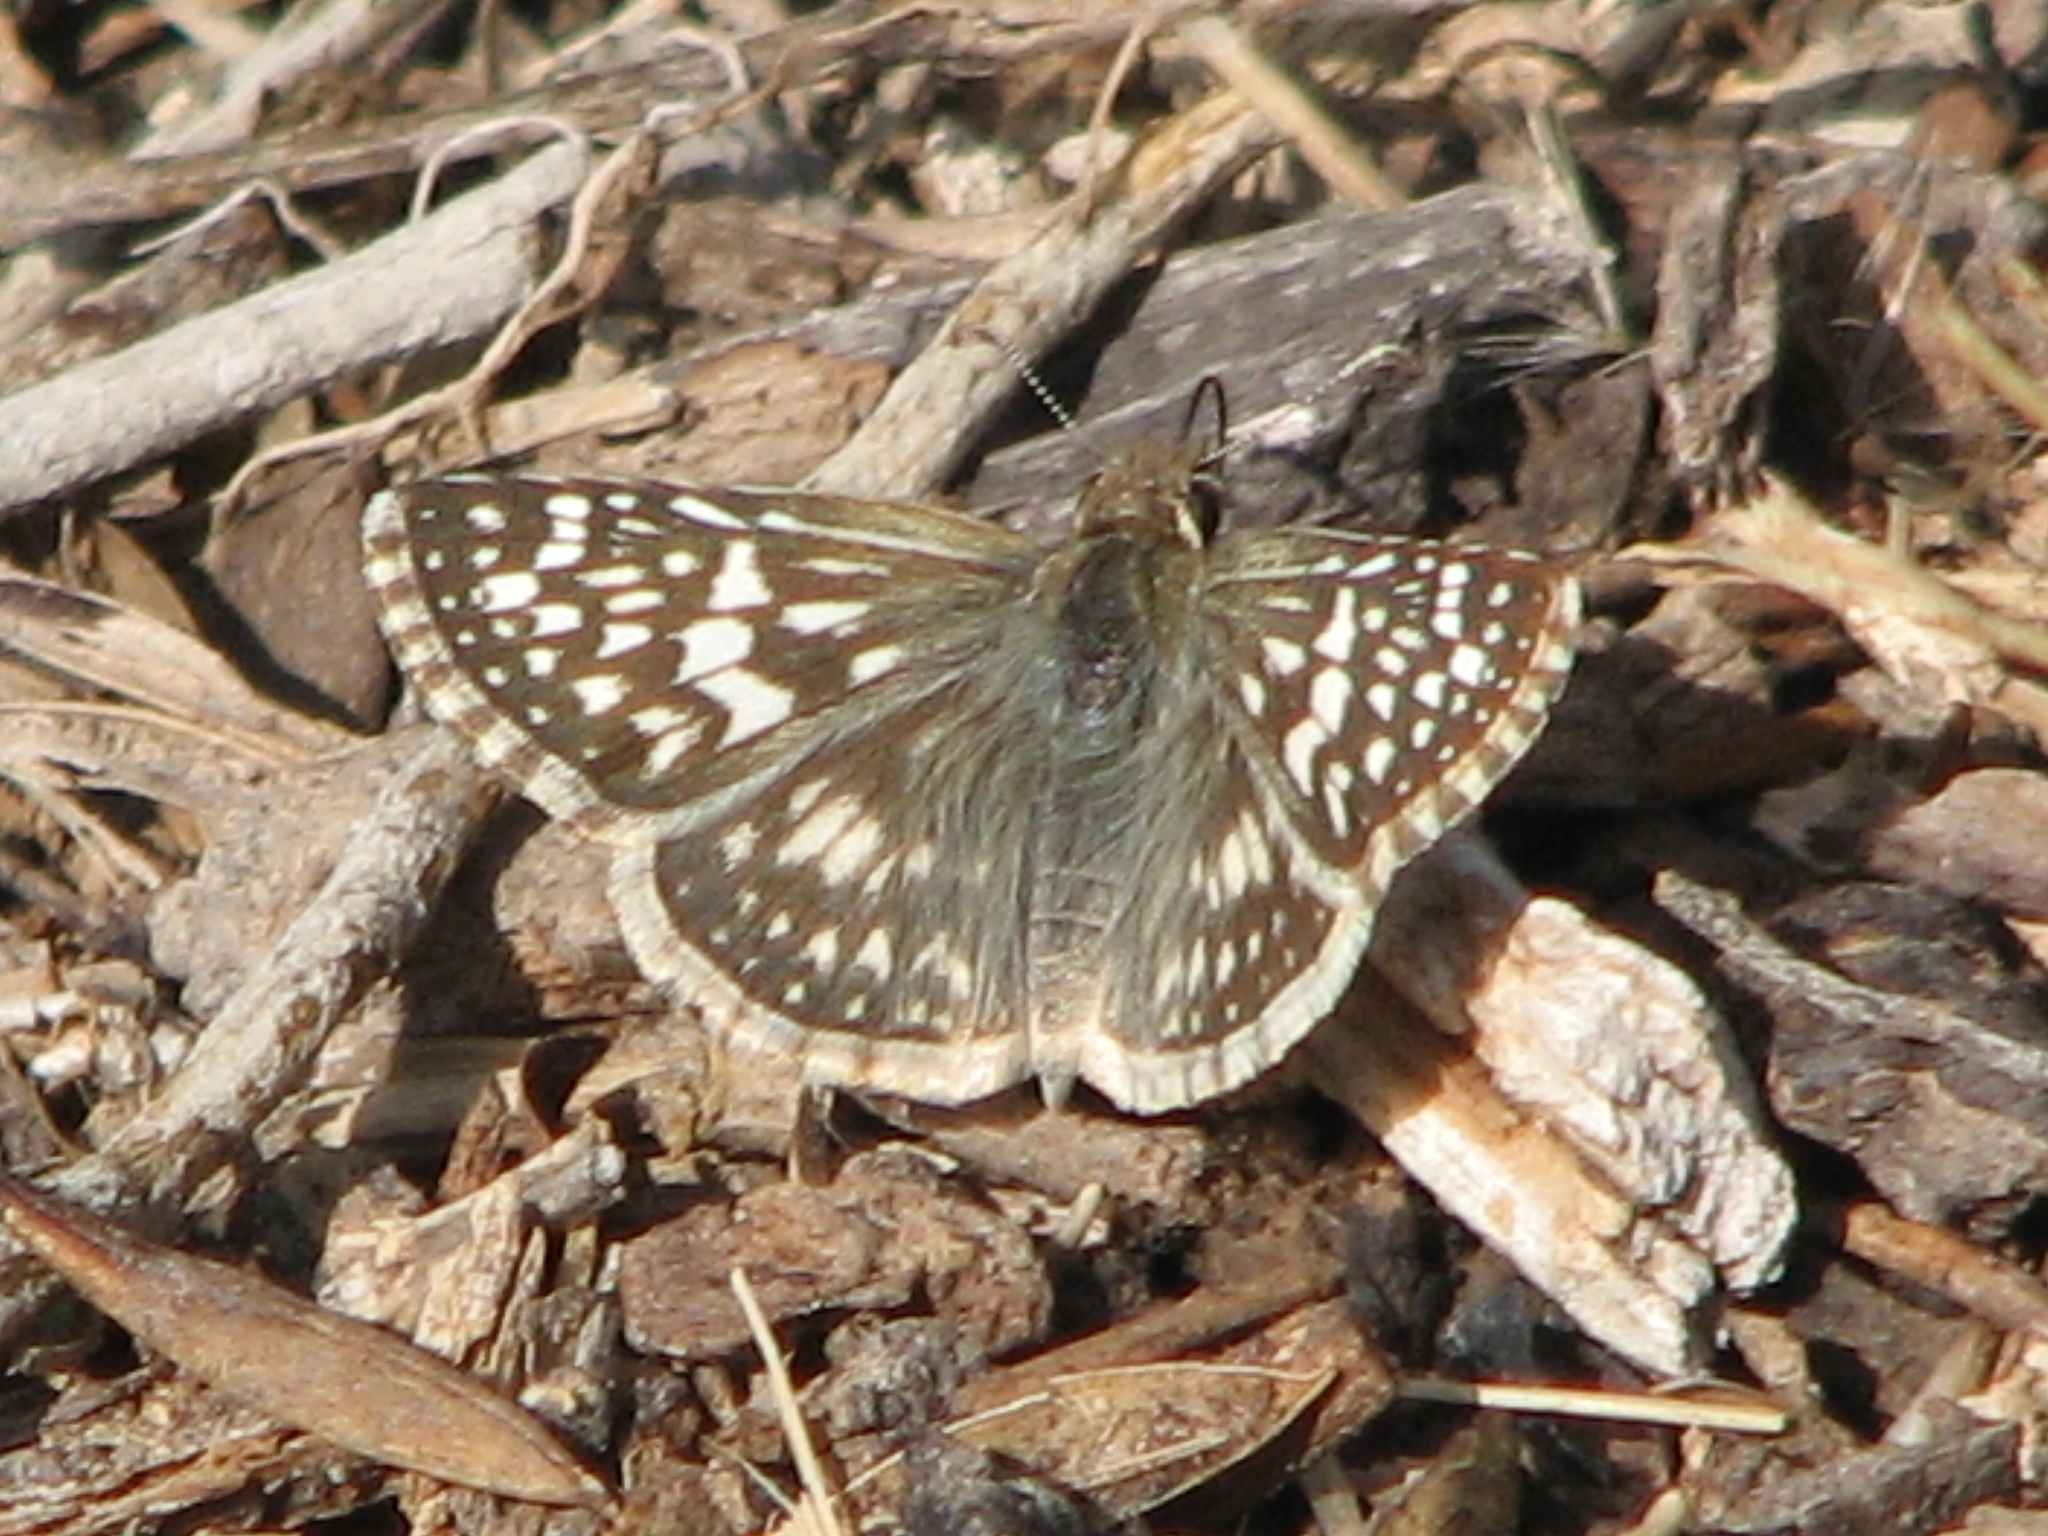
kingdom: Animalia
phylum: Arthropoda
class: Insecta
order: Lepidoptera
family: Hesperiidae
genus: Burnsius
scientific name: Burnsius philetas
